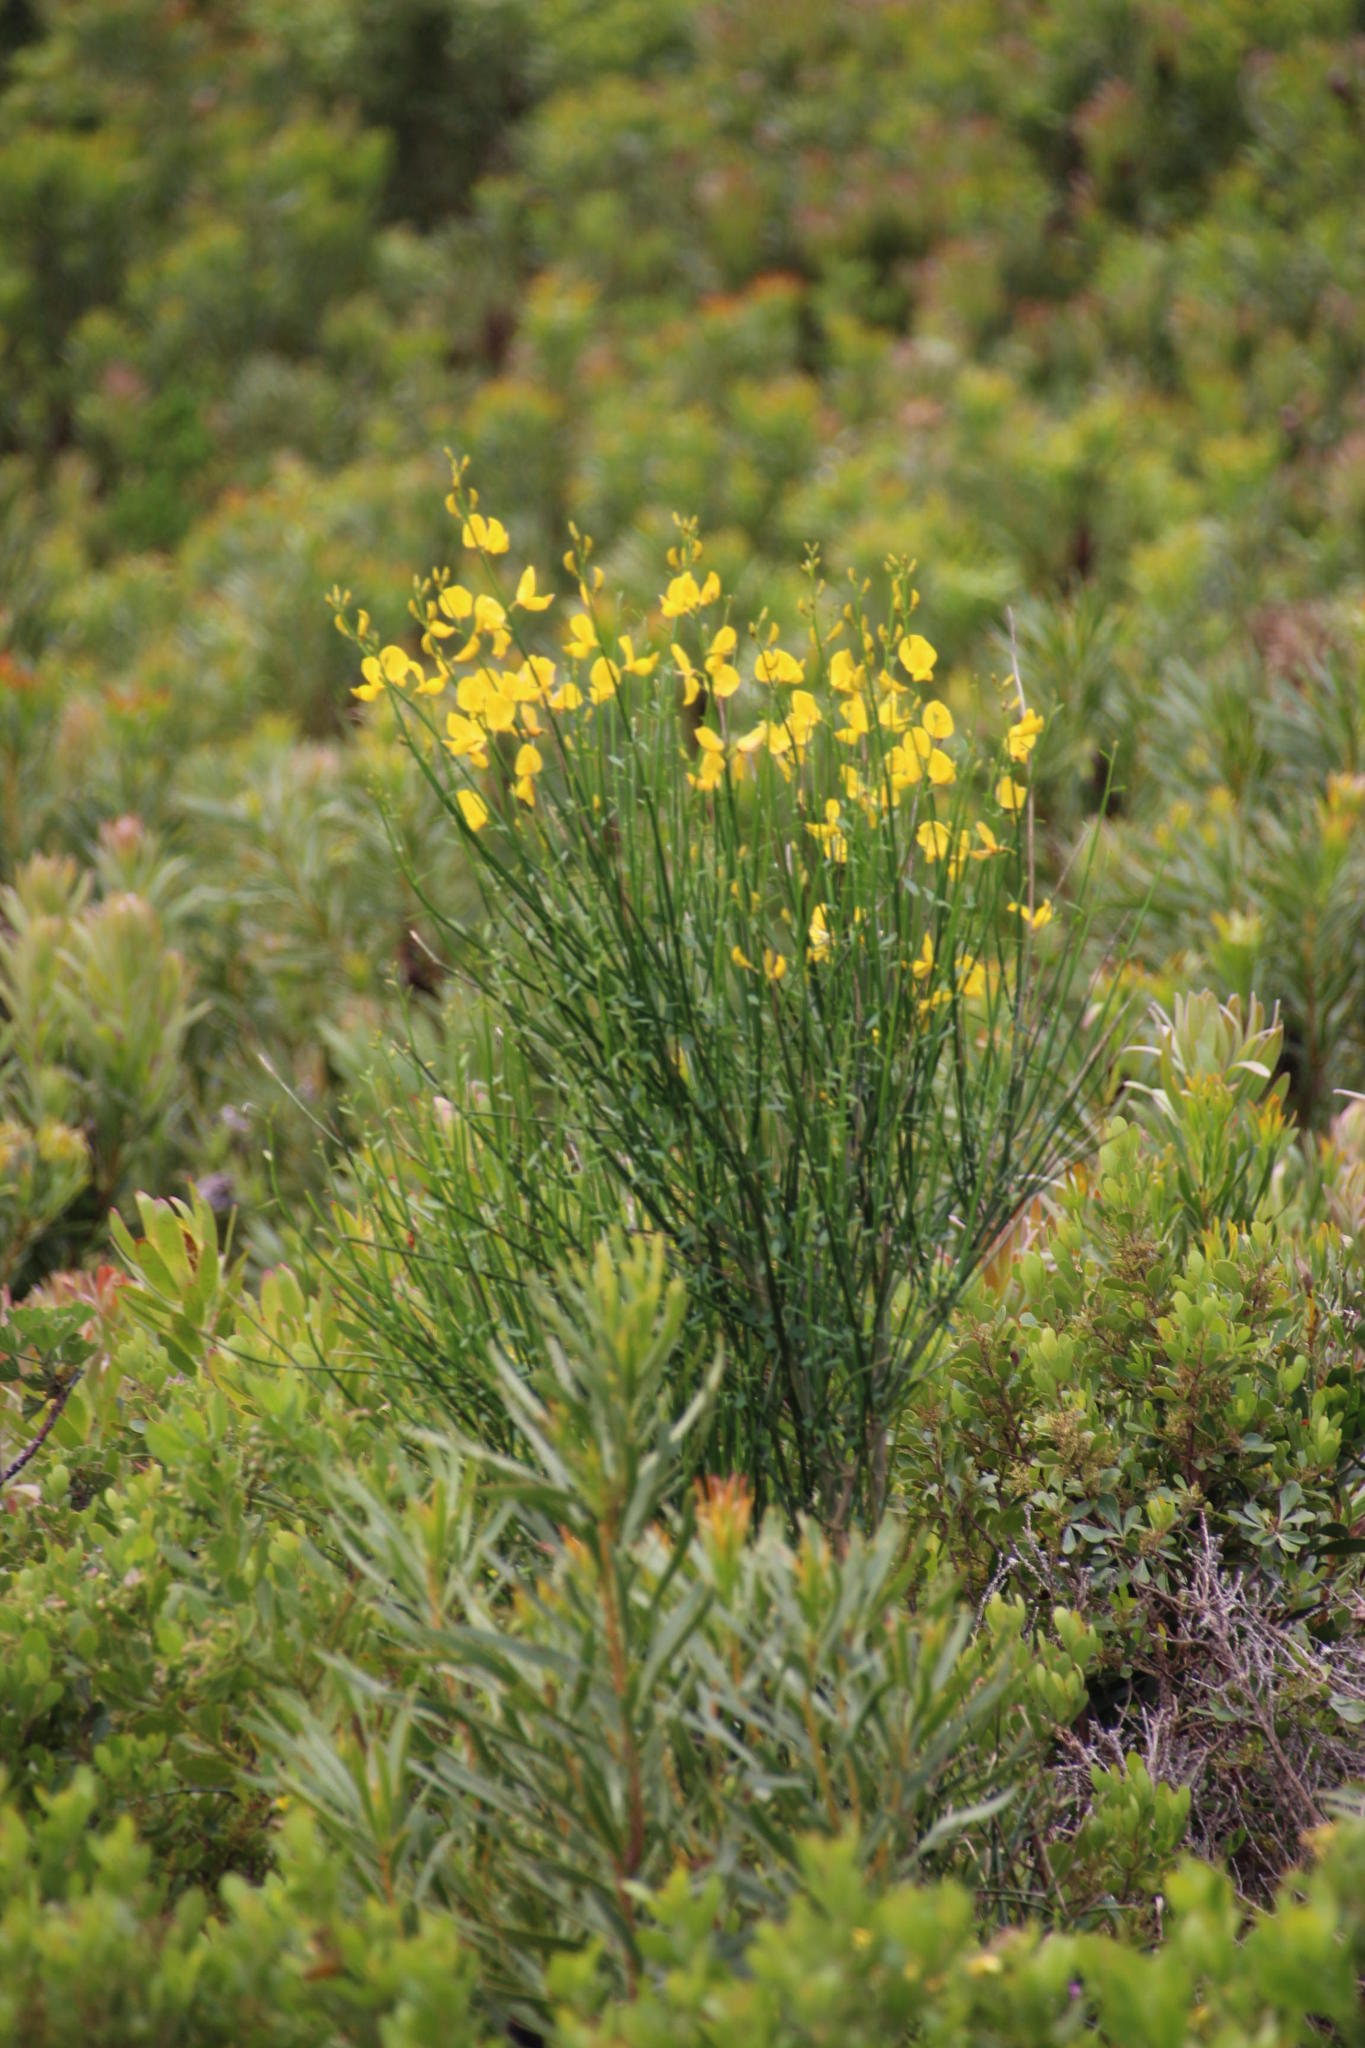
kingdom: Plantae
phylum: Tracheophyta
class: Magnoliopsida
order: Fabales
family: Fabaceae
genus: Spartium
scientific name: Spartium junceum
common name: Spanish broom
